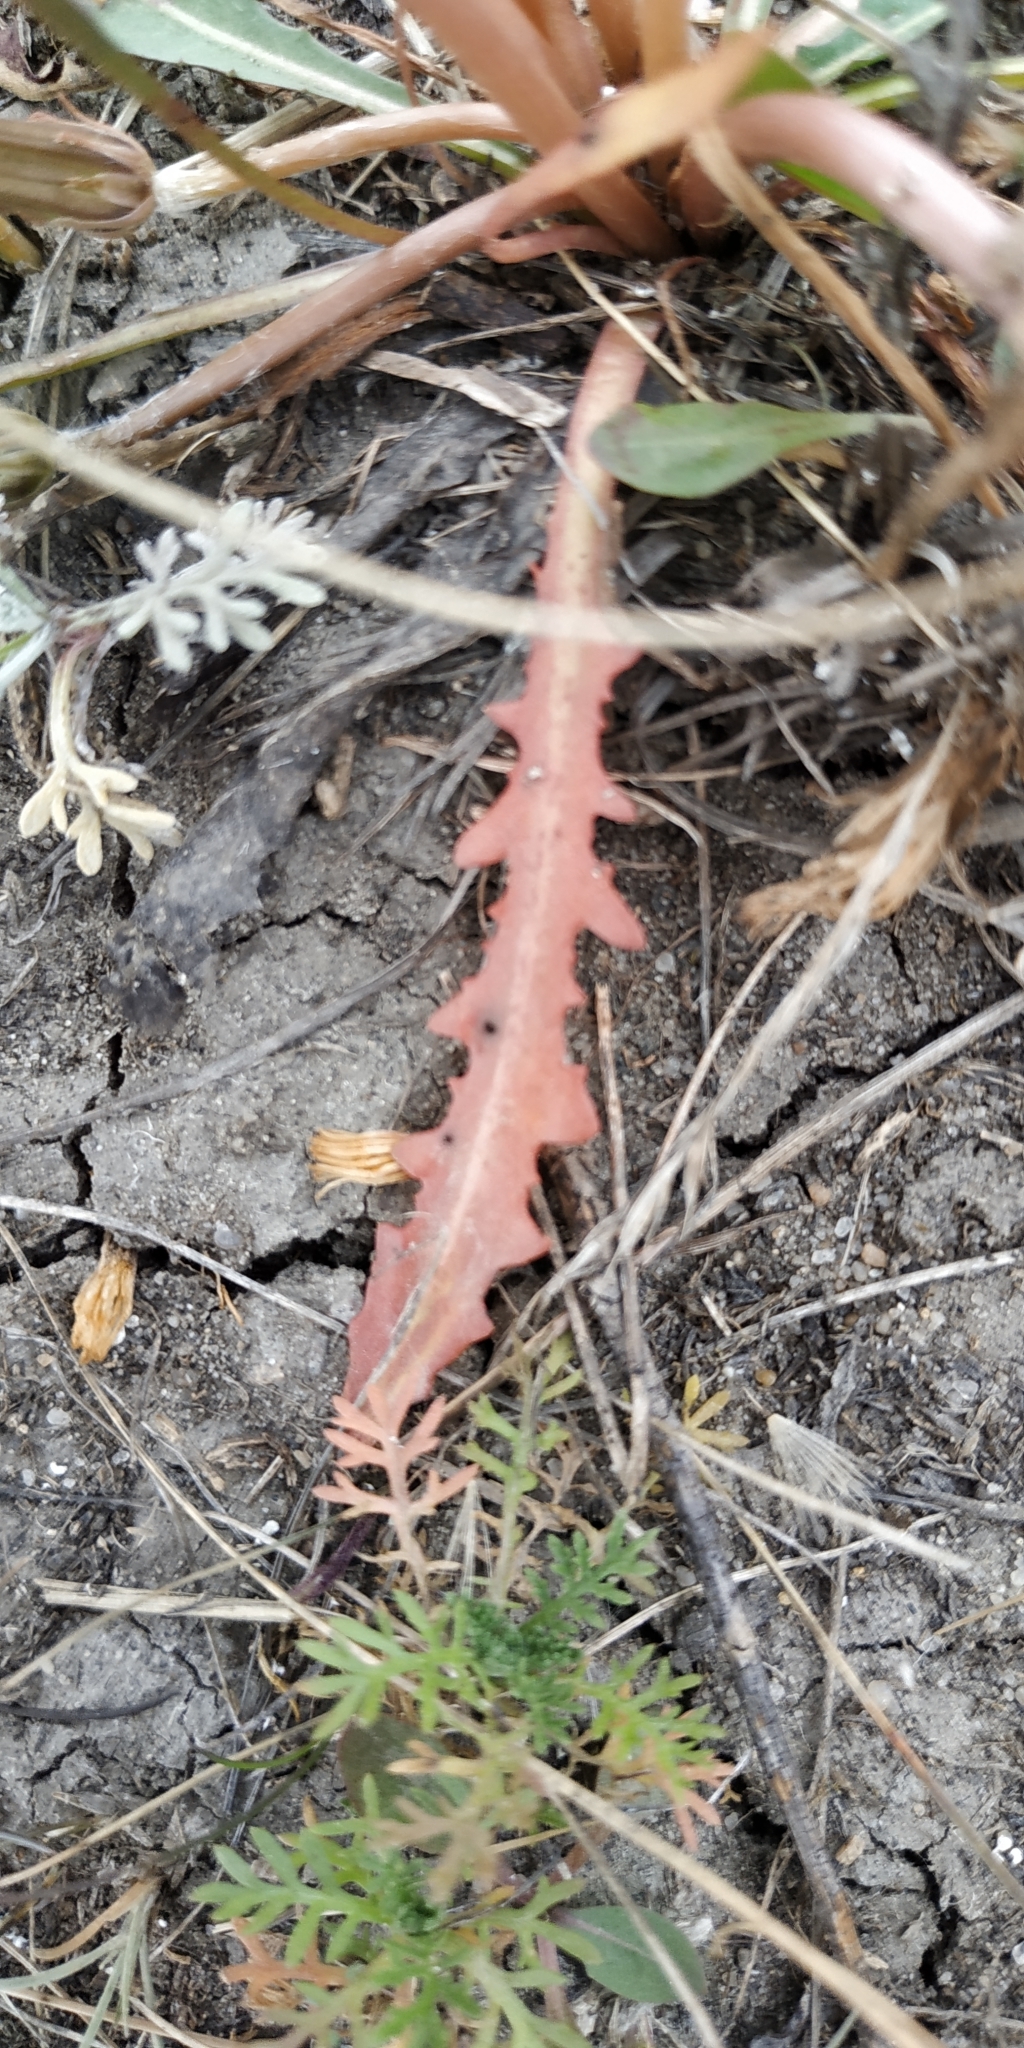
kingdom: Plantae
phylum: Tracheophyta
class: Magnoliopsida
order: Asterales
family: Asteraceae
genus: Taraxacum
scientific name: Taraxacum bessarabicum
